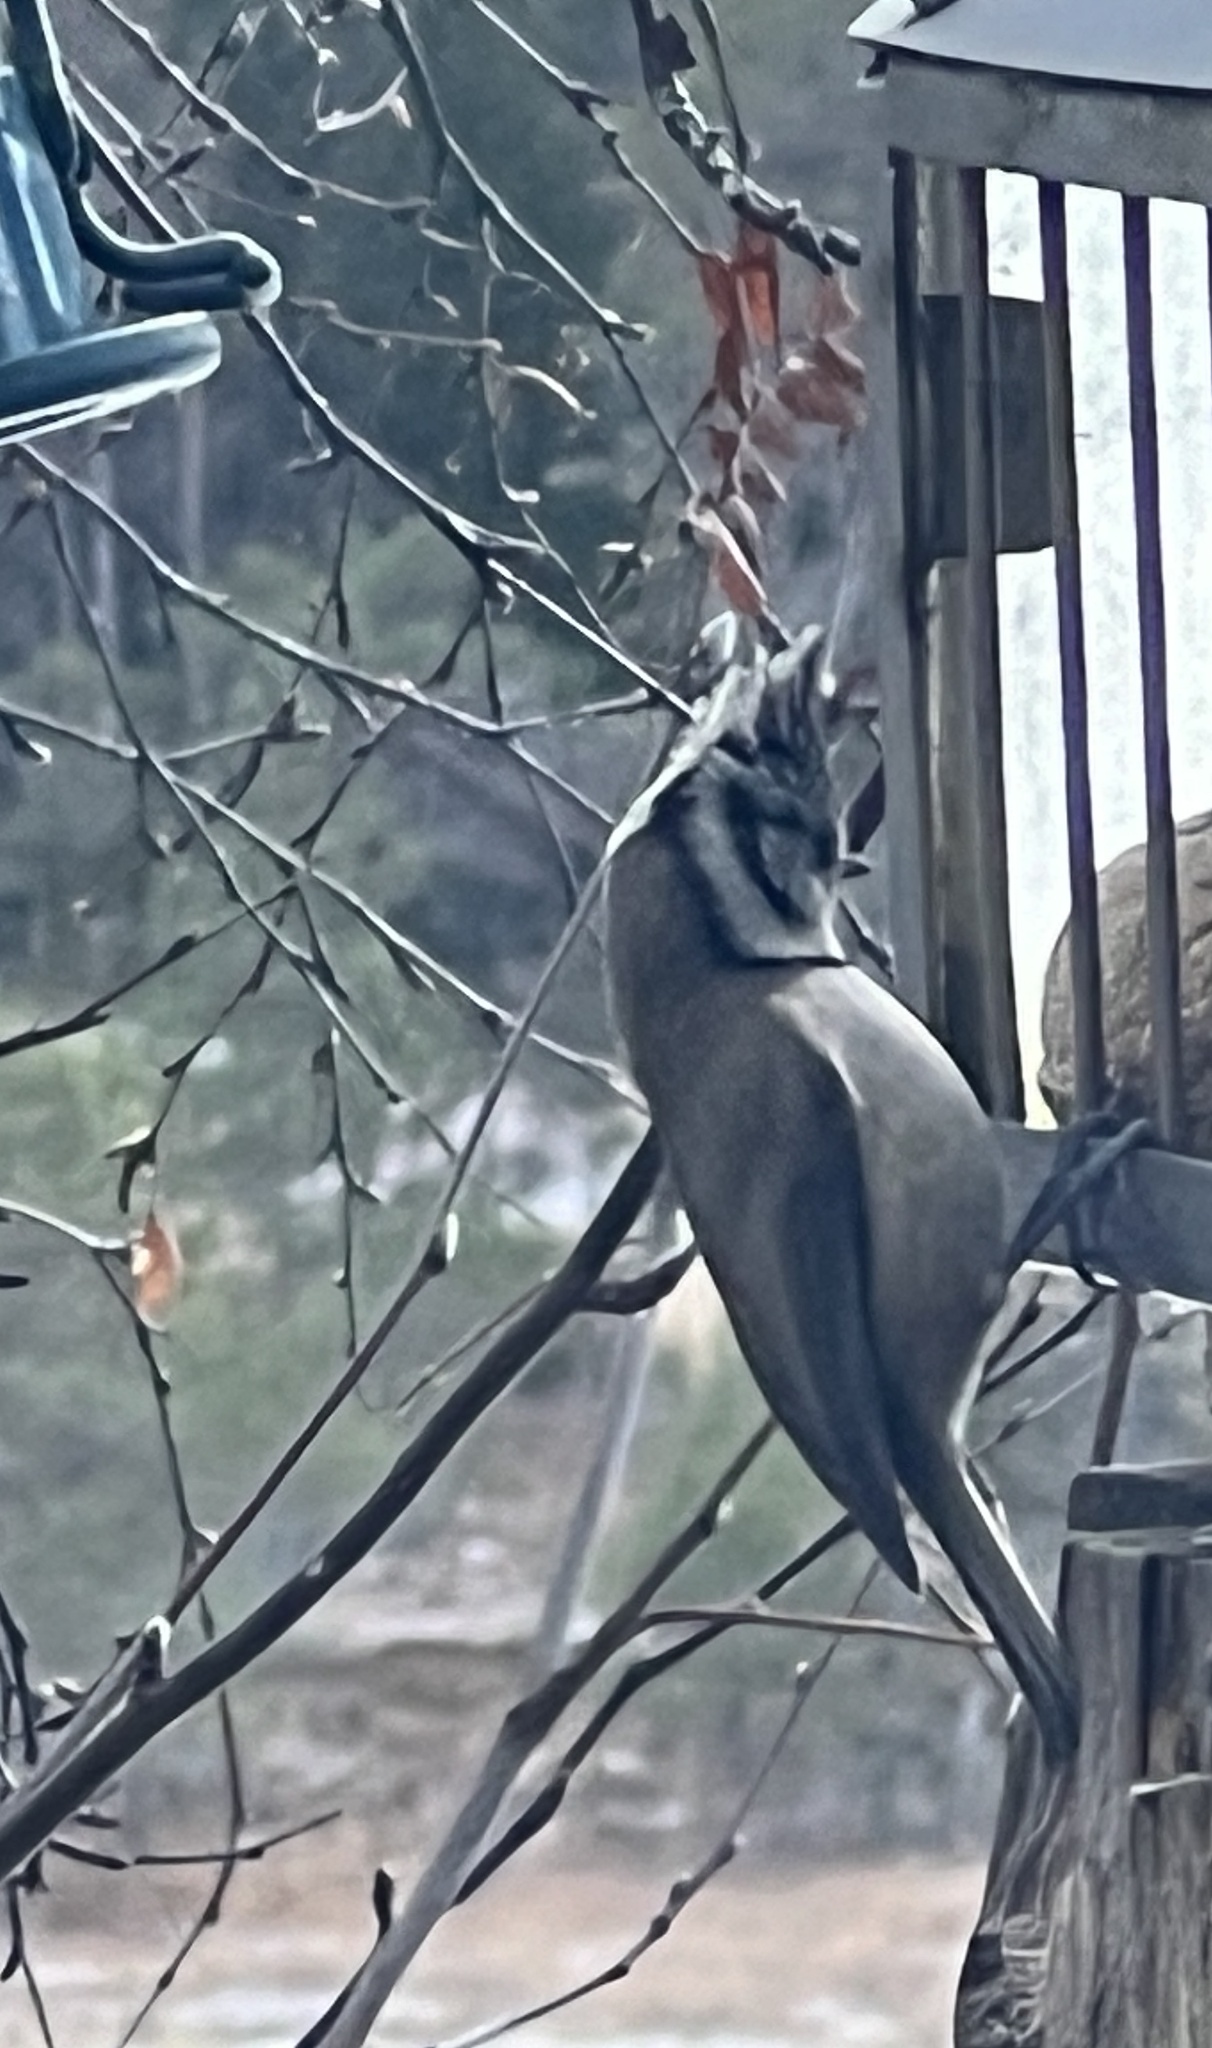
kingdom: Animalia
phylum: Chordata
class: Aves
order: Passeriformes
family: Paridae
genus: Lophophanes
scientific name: Lophophanes cristatus
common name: European crested tit
